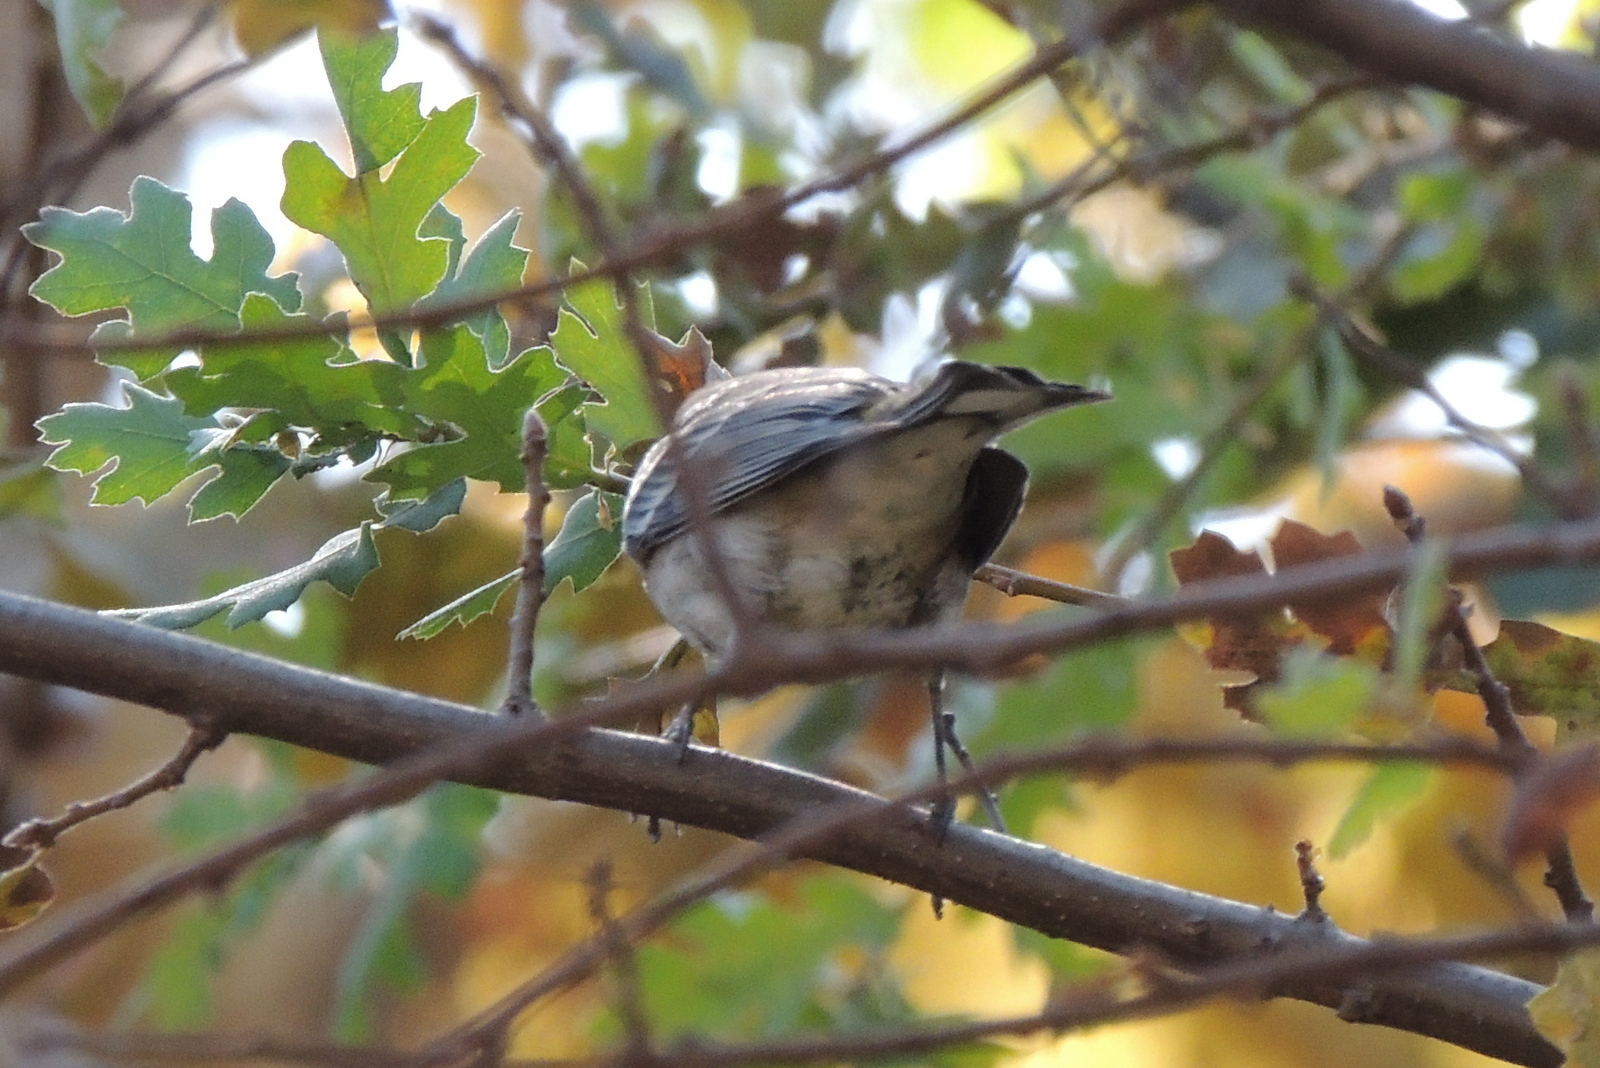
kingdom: Animalia
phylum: Chordata
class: Aves
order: Passeriformes
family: Parulidae
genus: Setophaga
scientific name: Setophaga coronata
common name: Myrtle warbler
